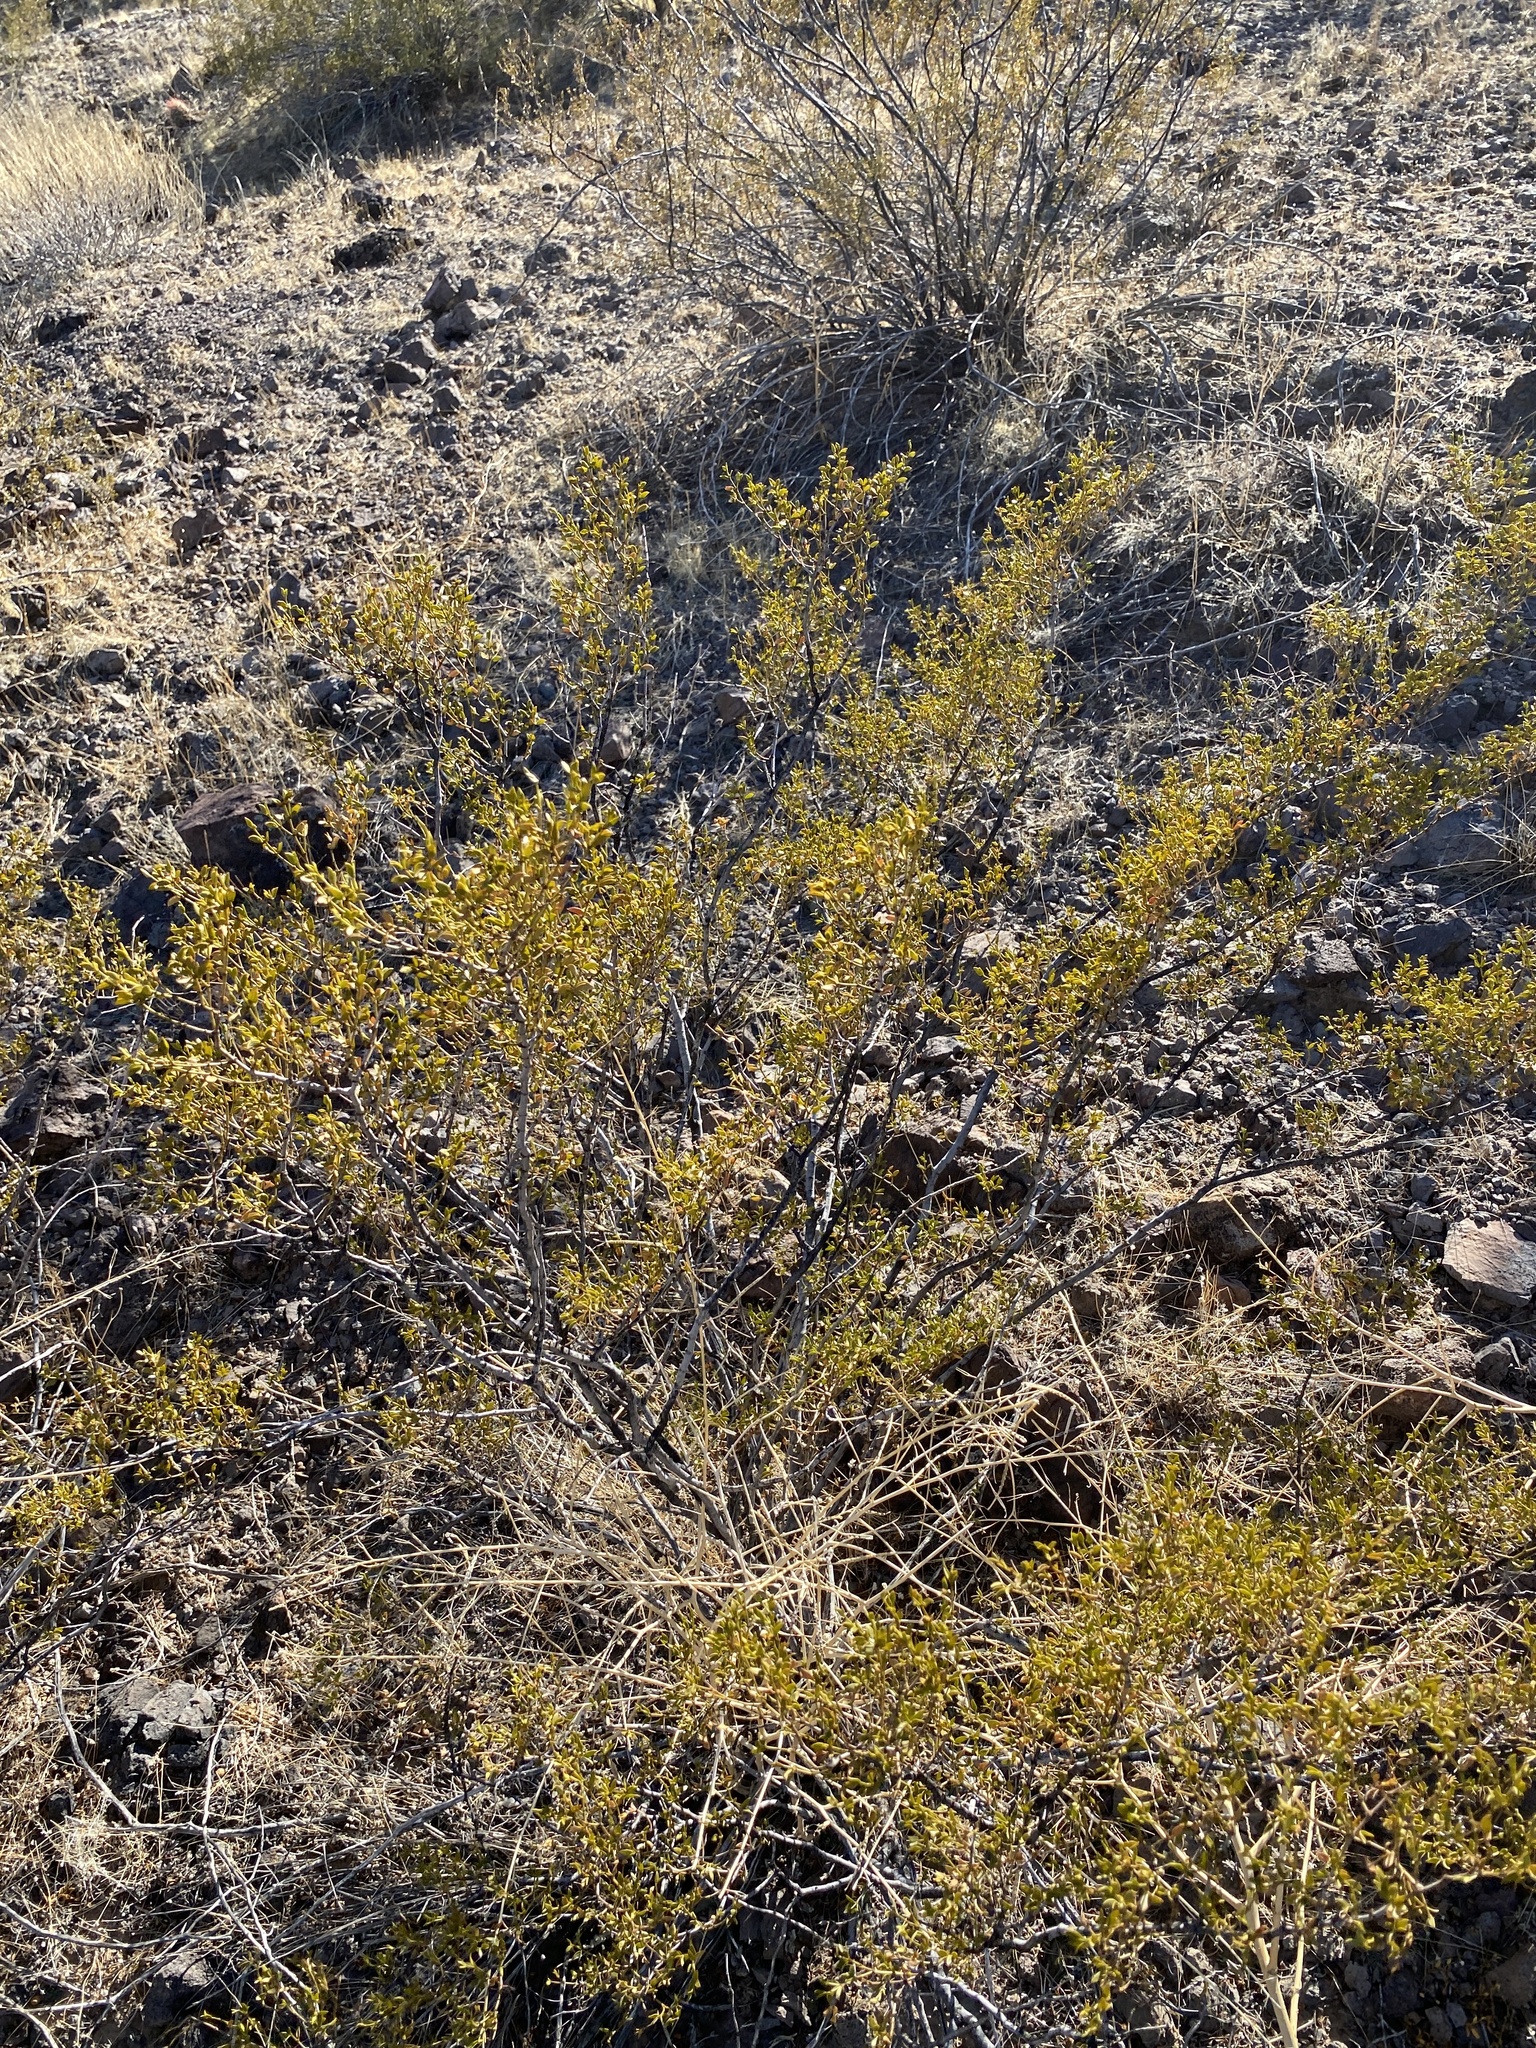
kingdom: Plantae
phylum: Tracheophyta
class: Magnoliopsida
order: Zygophyllales
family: Zygophyllaceae
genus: Larrea
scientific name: Larrea tridentata
